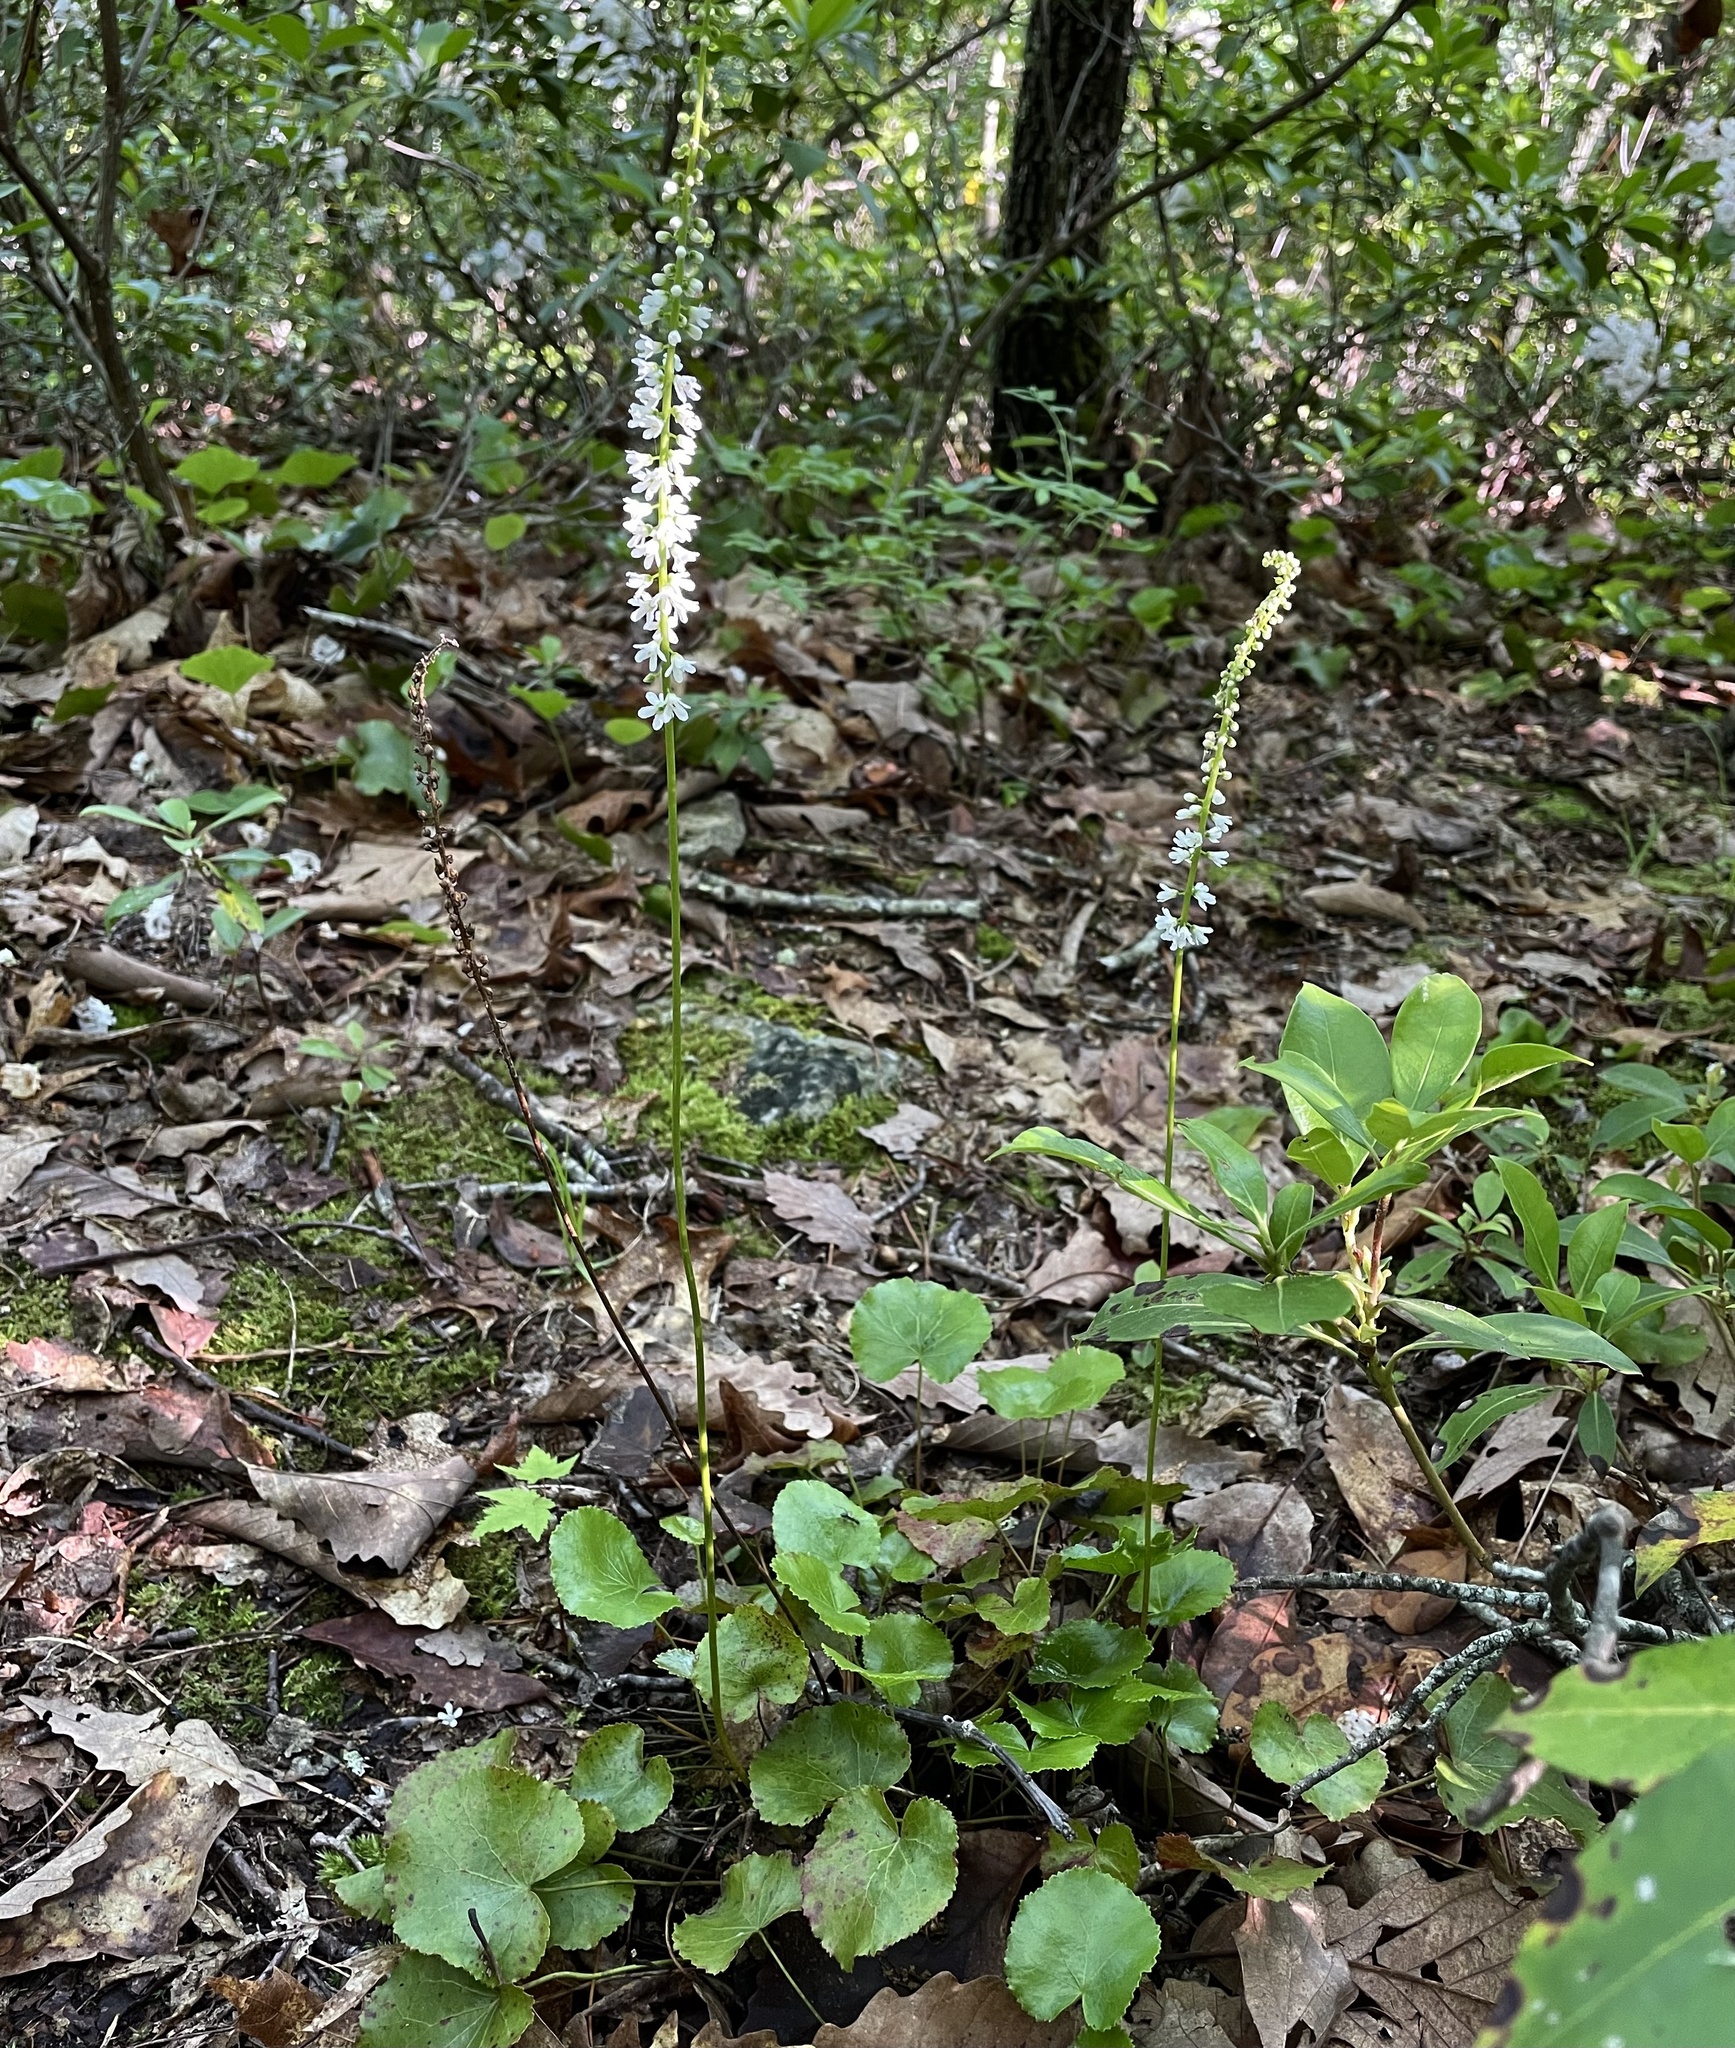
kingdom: Plantae
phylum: Tracheophyta
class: Magnoliopsida
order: Ericales
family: Diapensiaceae
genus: Galax
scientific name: Galax urceolata
